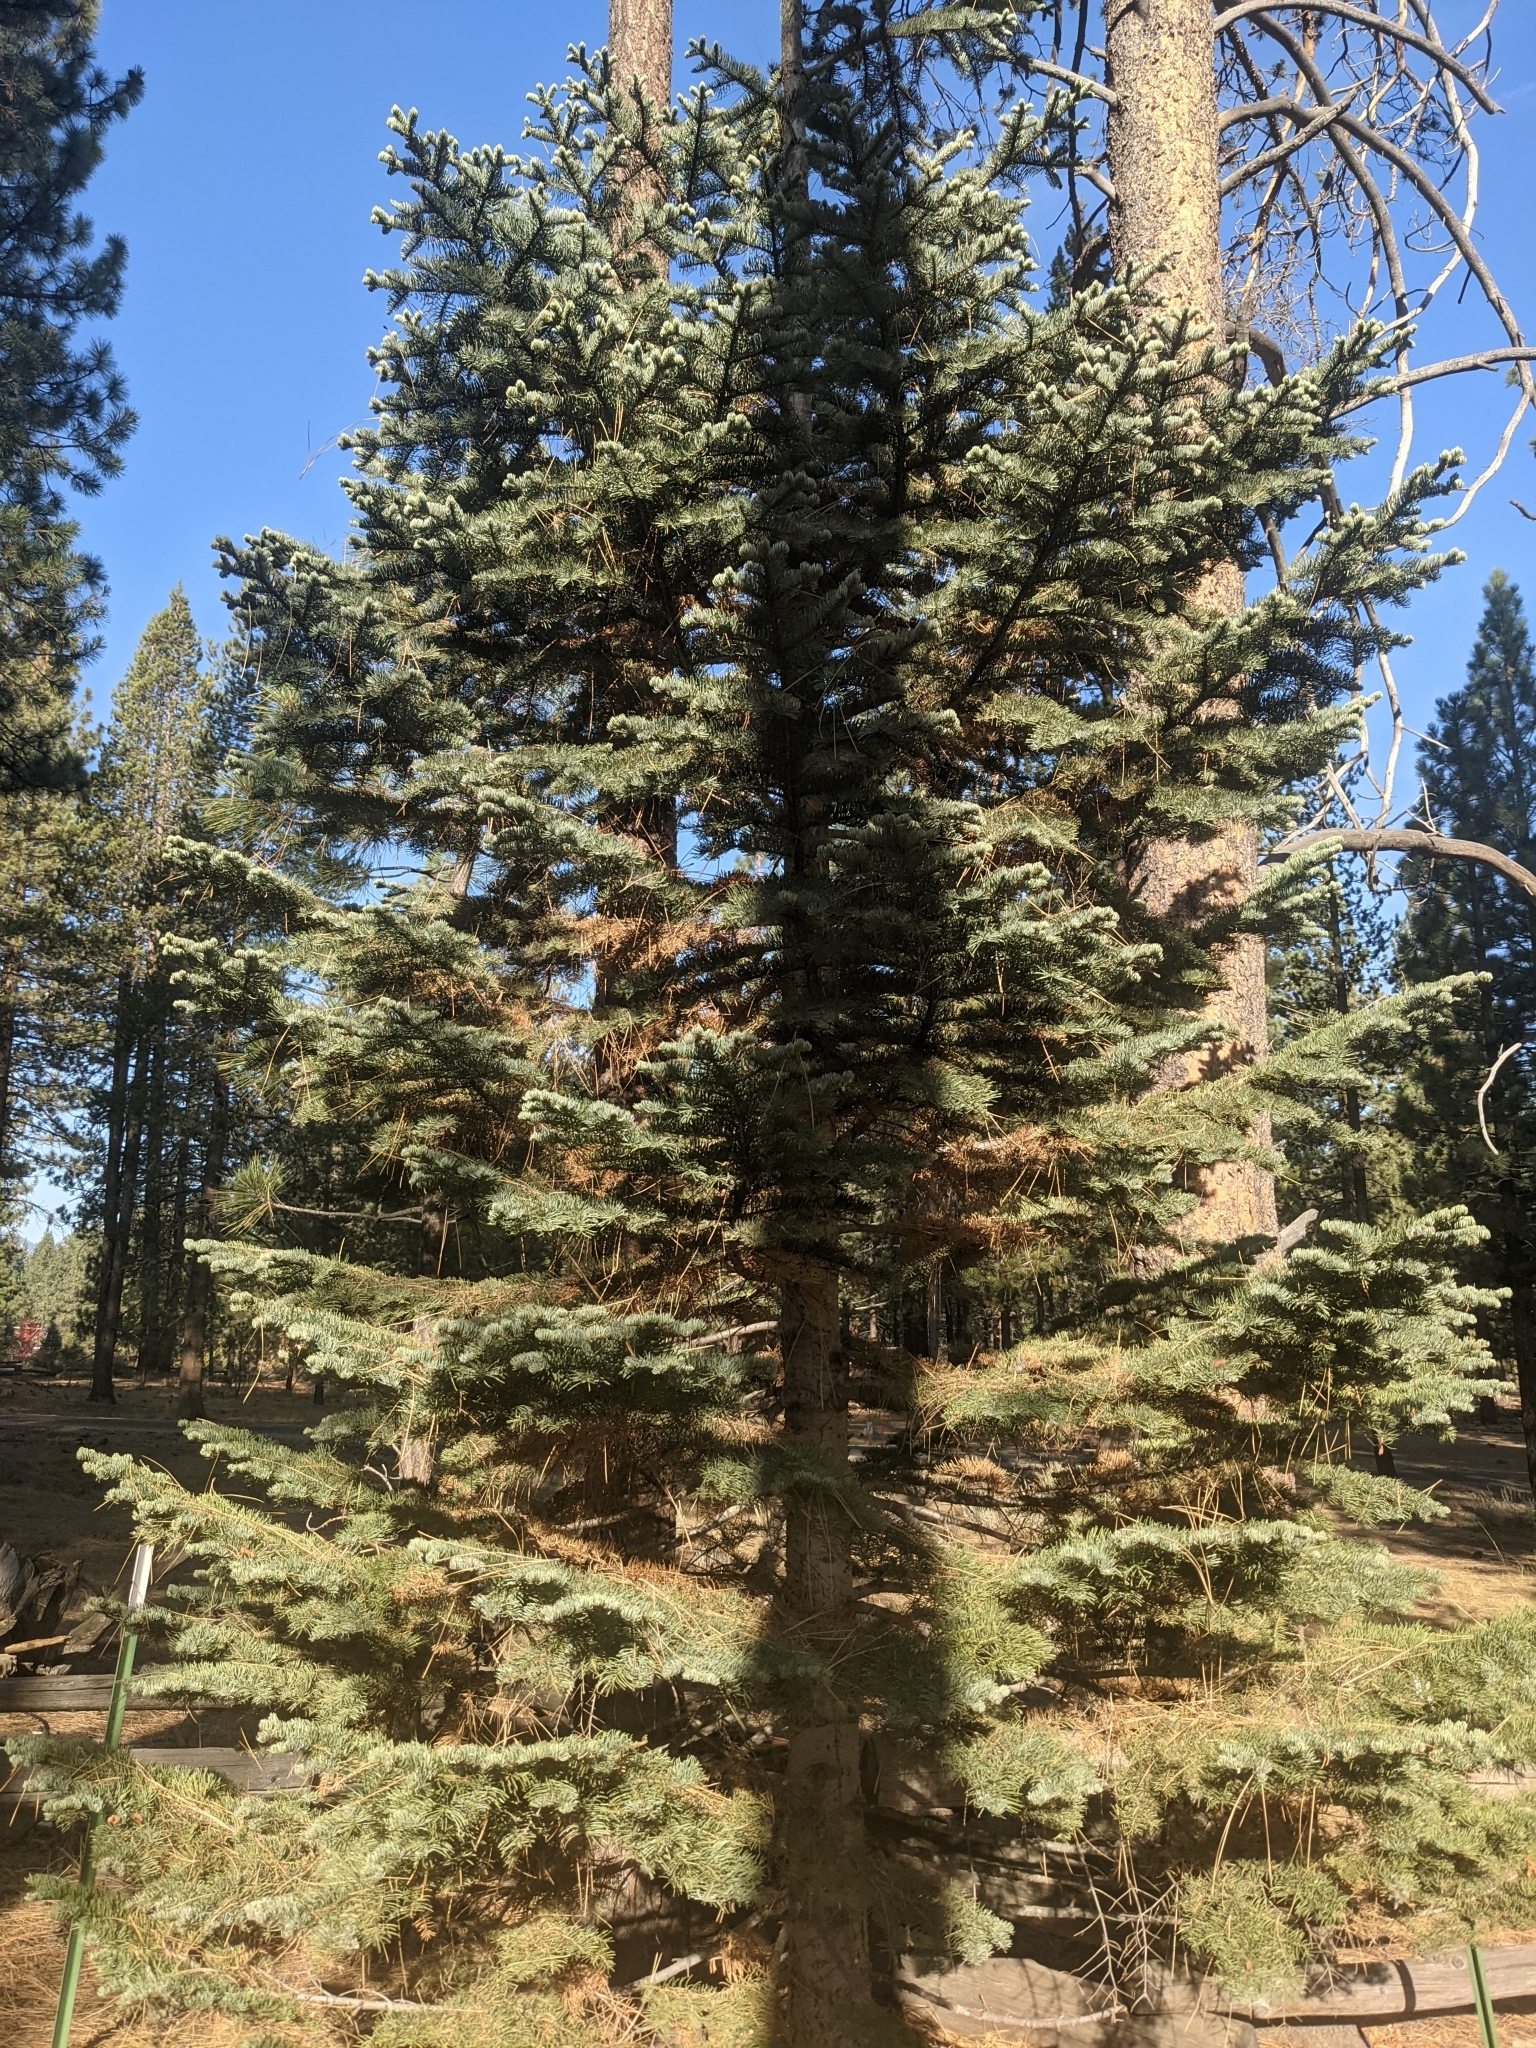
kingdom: Plantae
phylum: Tracheophyta
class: Pinopsida
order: Pinales
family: Pinaceae
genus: Abies
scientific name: Abies concolor
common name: Colorado fir
